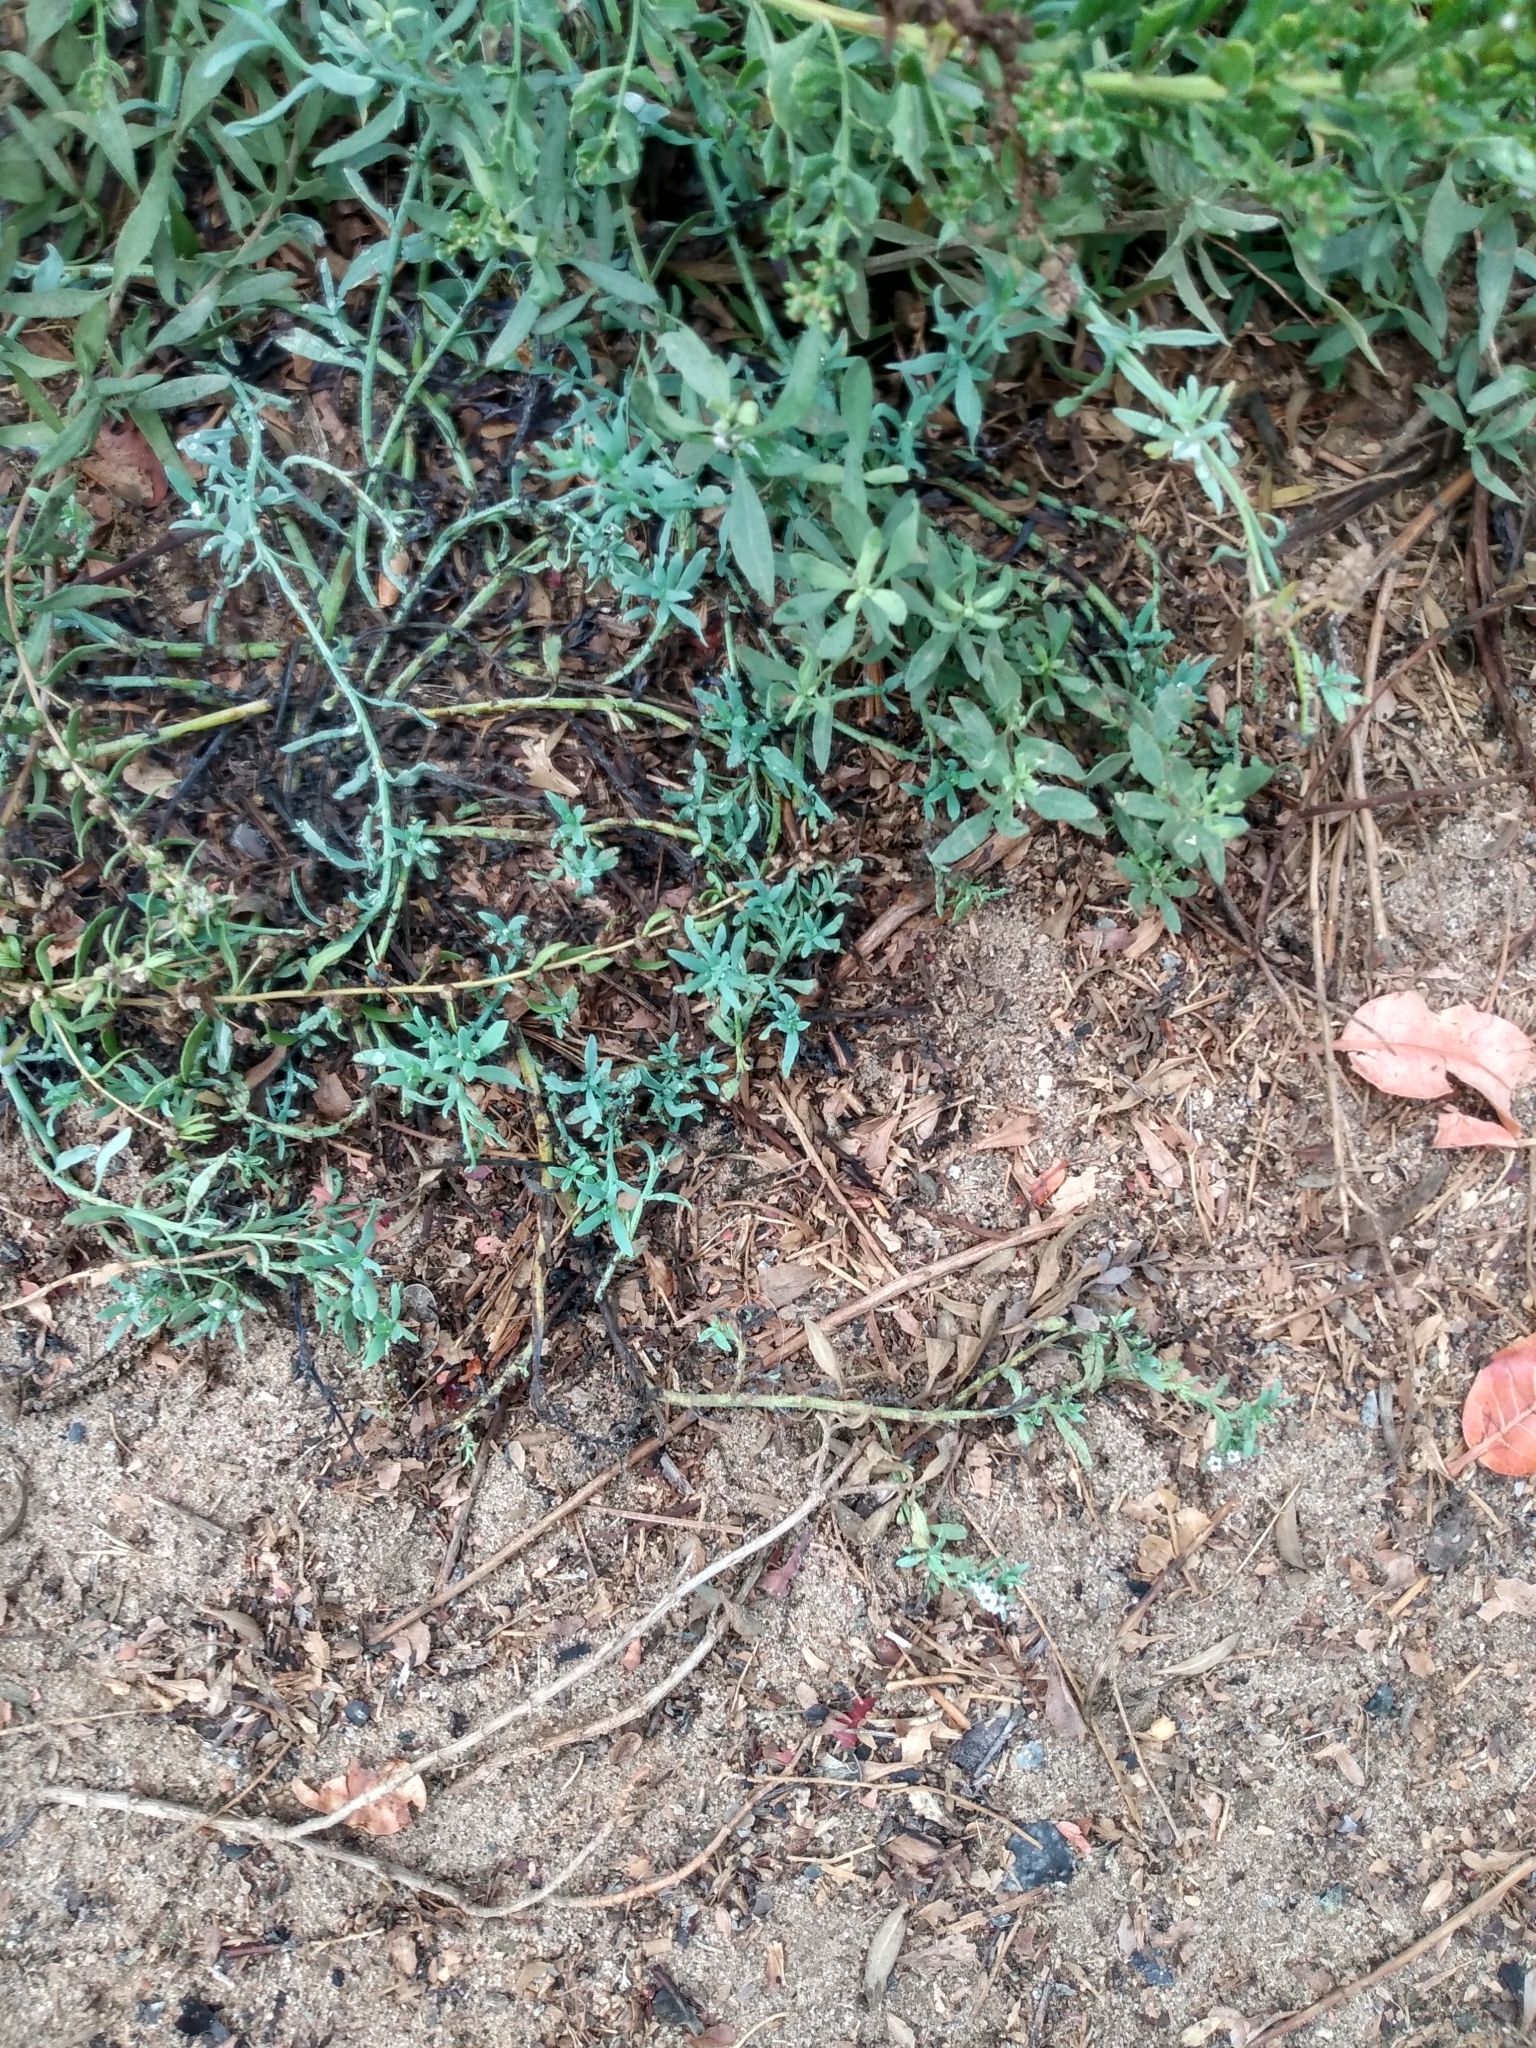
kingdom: Plantae
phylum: Tracheophyta
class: Magnoliopsida
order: Boraginales
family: Heliotropiaceae
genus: Heliotropium
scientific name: Heliotropium curassavicum
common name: Seaside heliotrope
